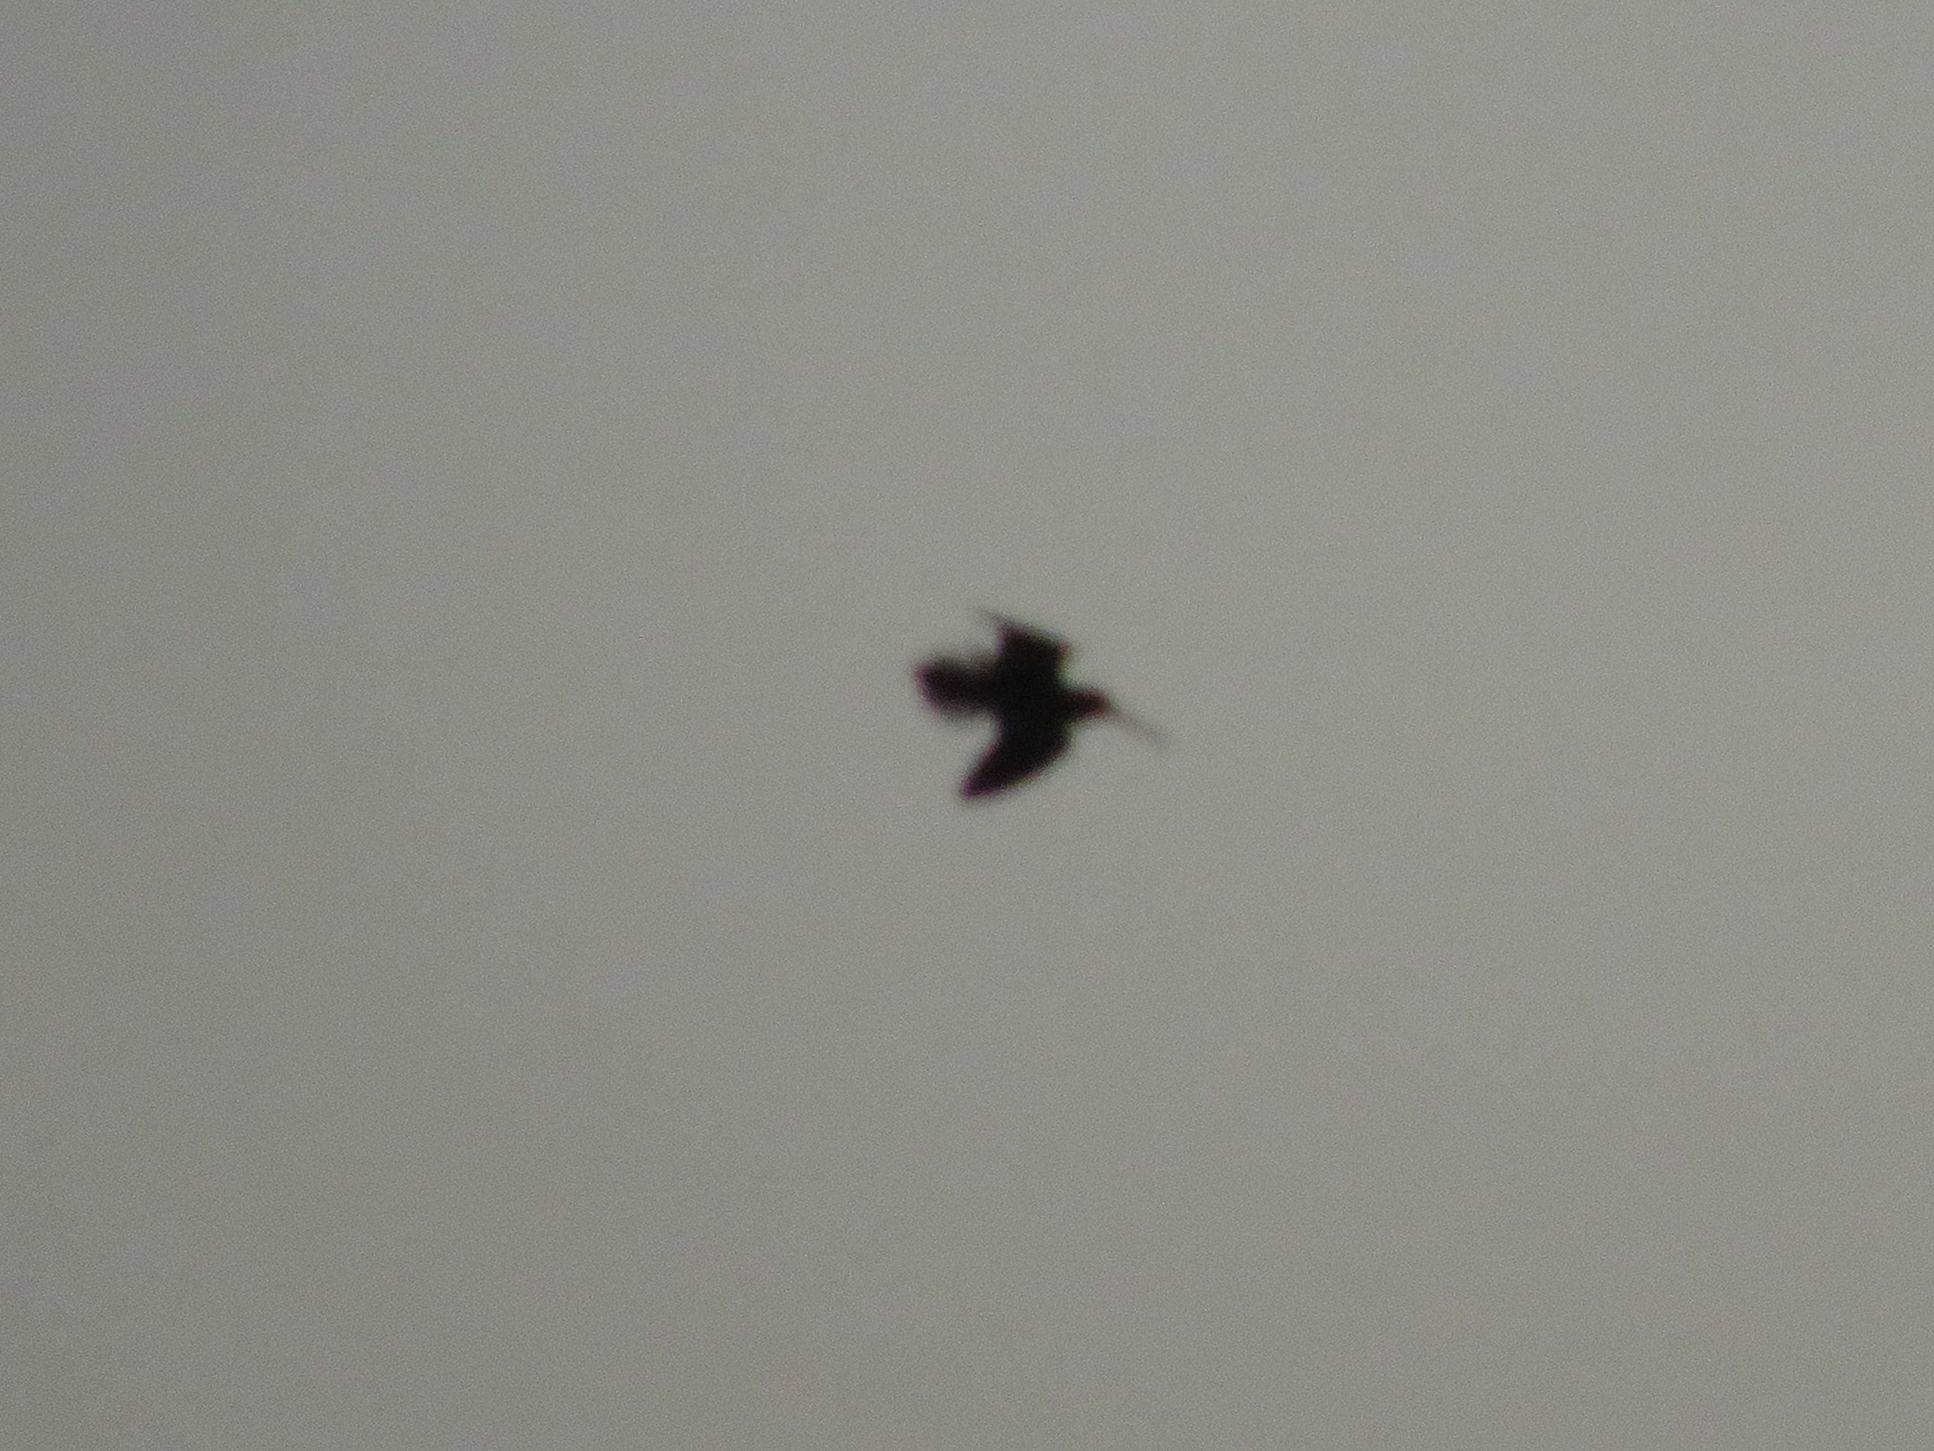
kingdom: Animalia
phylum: Chordata
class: Aves
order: Charadriiformes
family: Scolopacidae
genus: Gallinago
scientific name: Gallinago paraguaiae
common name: South american snipe
